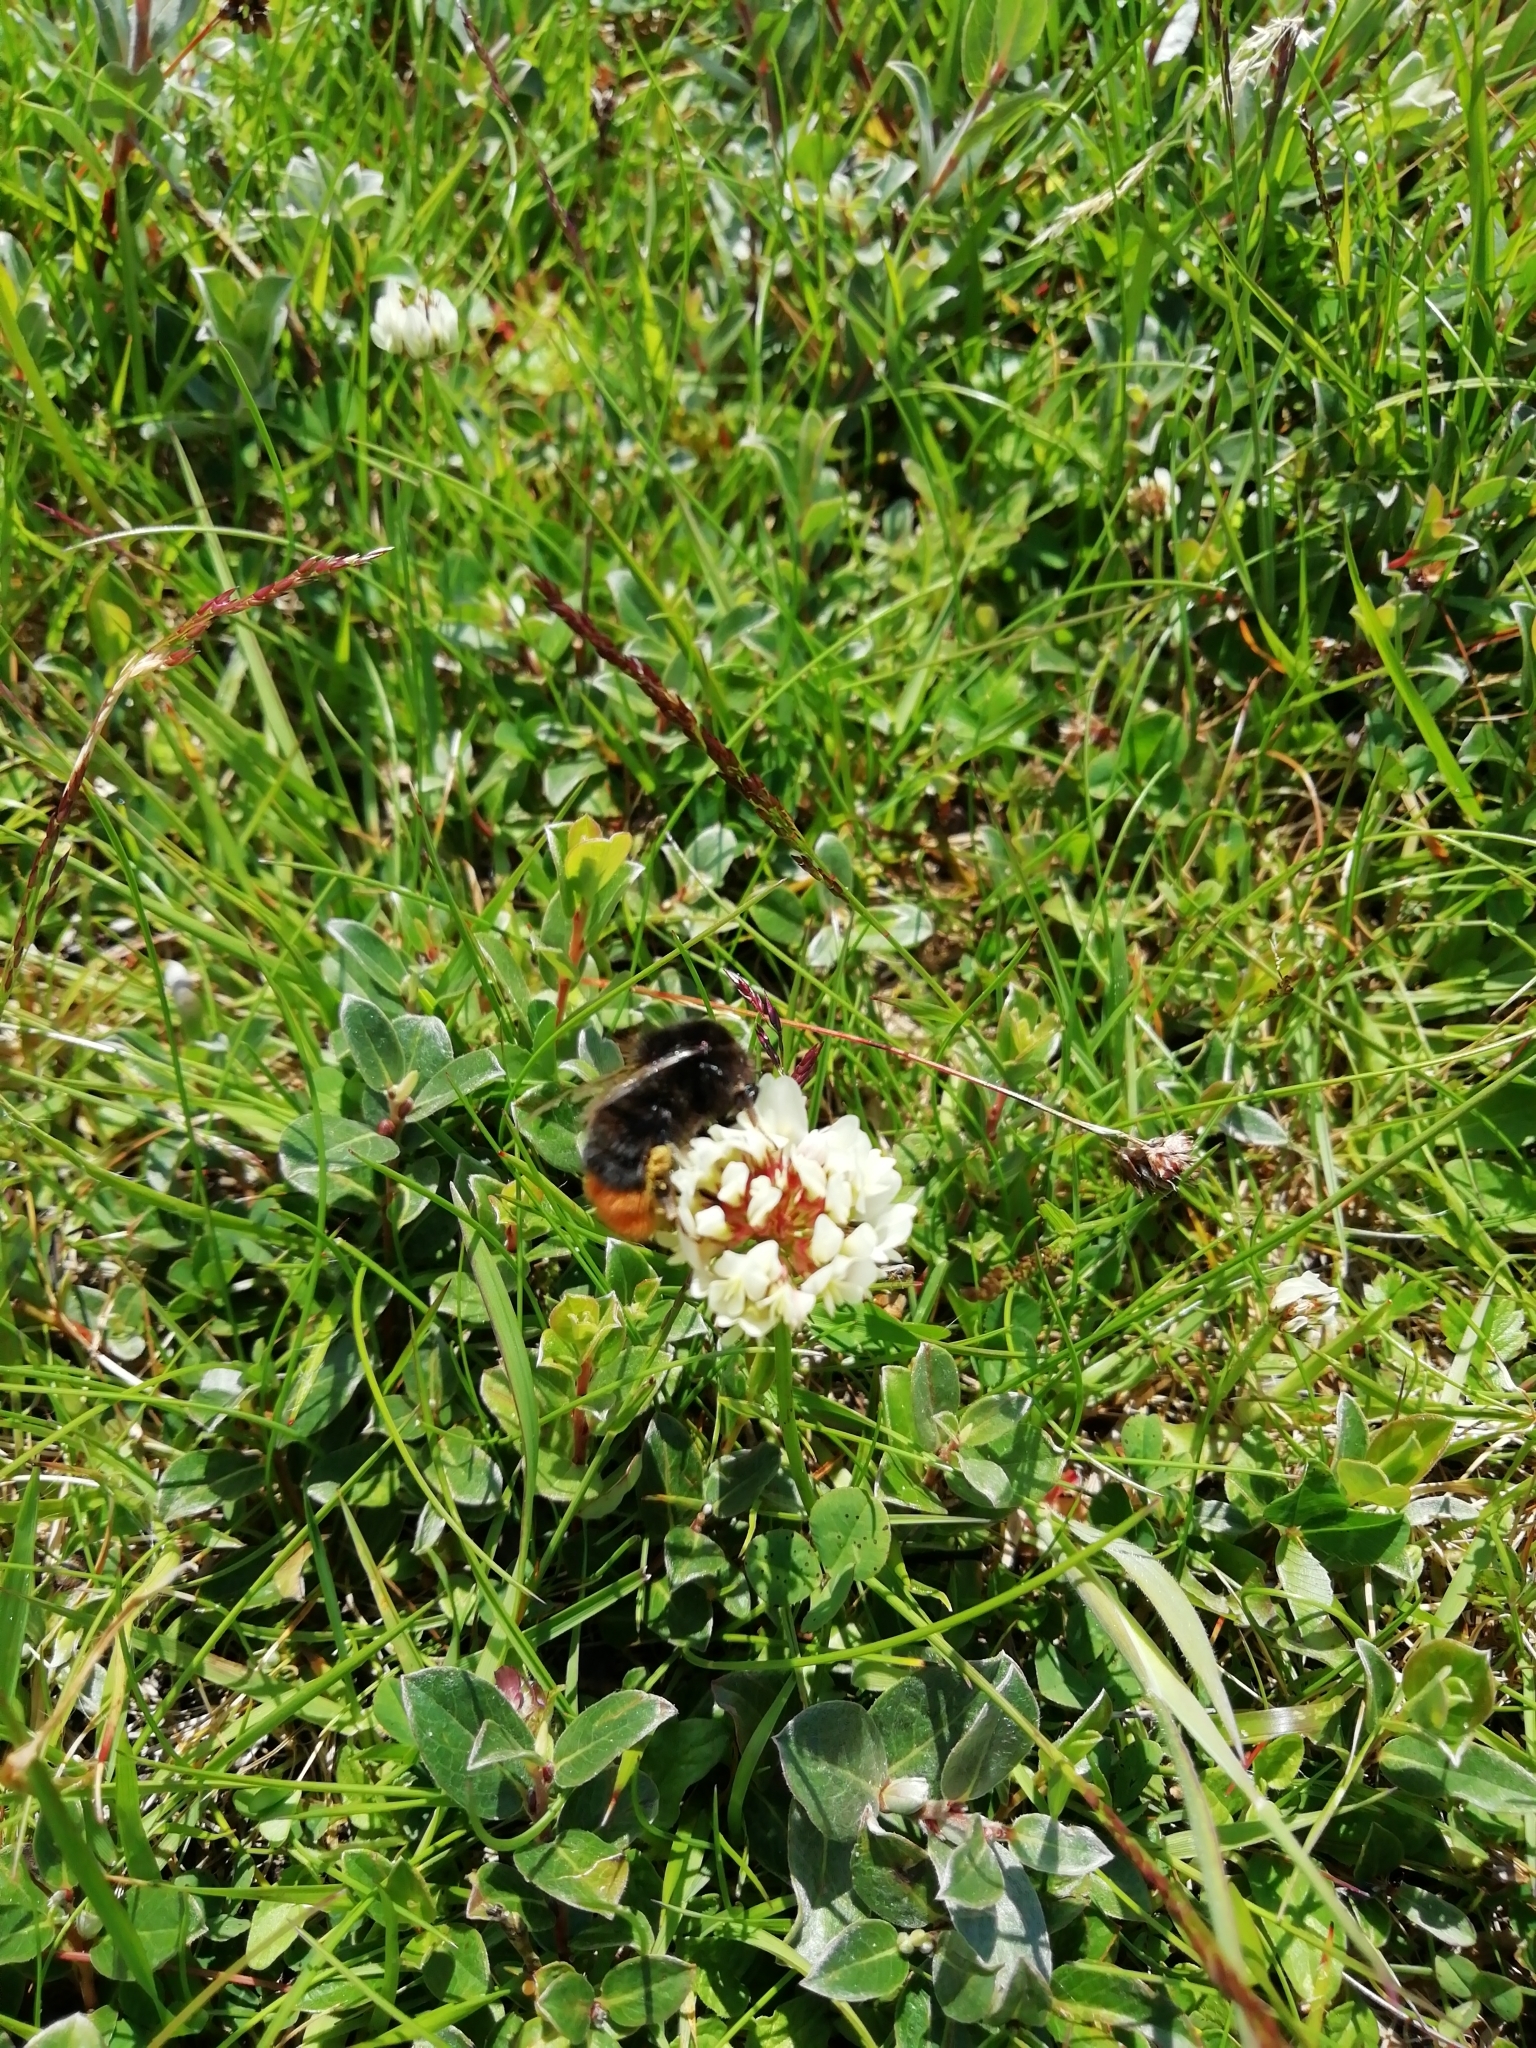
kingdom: Animalia
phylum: Arthropoda
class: Insecta
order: Hymenoptera
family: Apidae
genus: Bombus
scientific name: Bombus lapidarius
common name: Large red-tailed humble-bee
